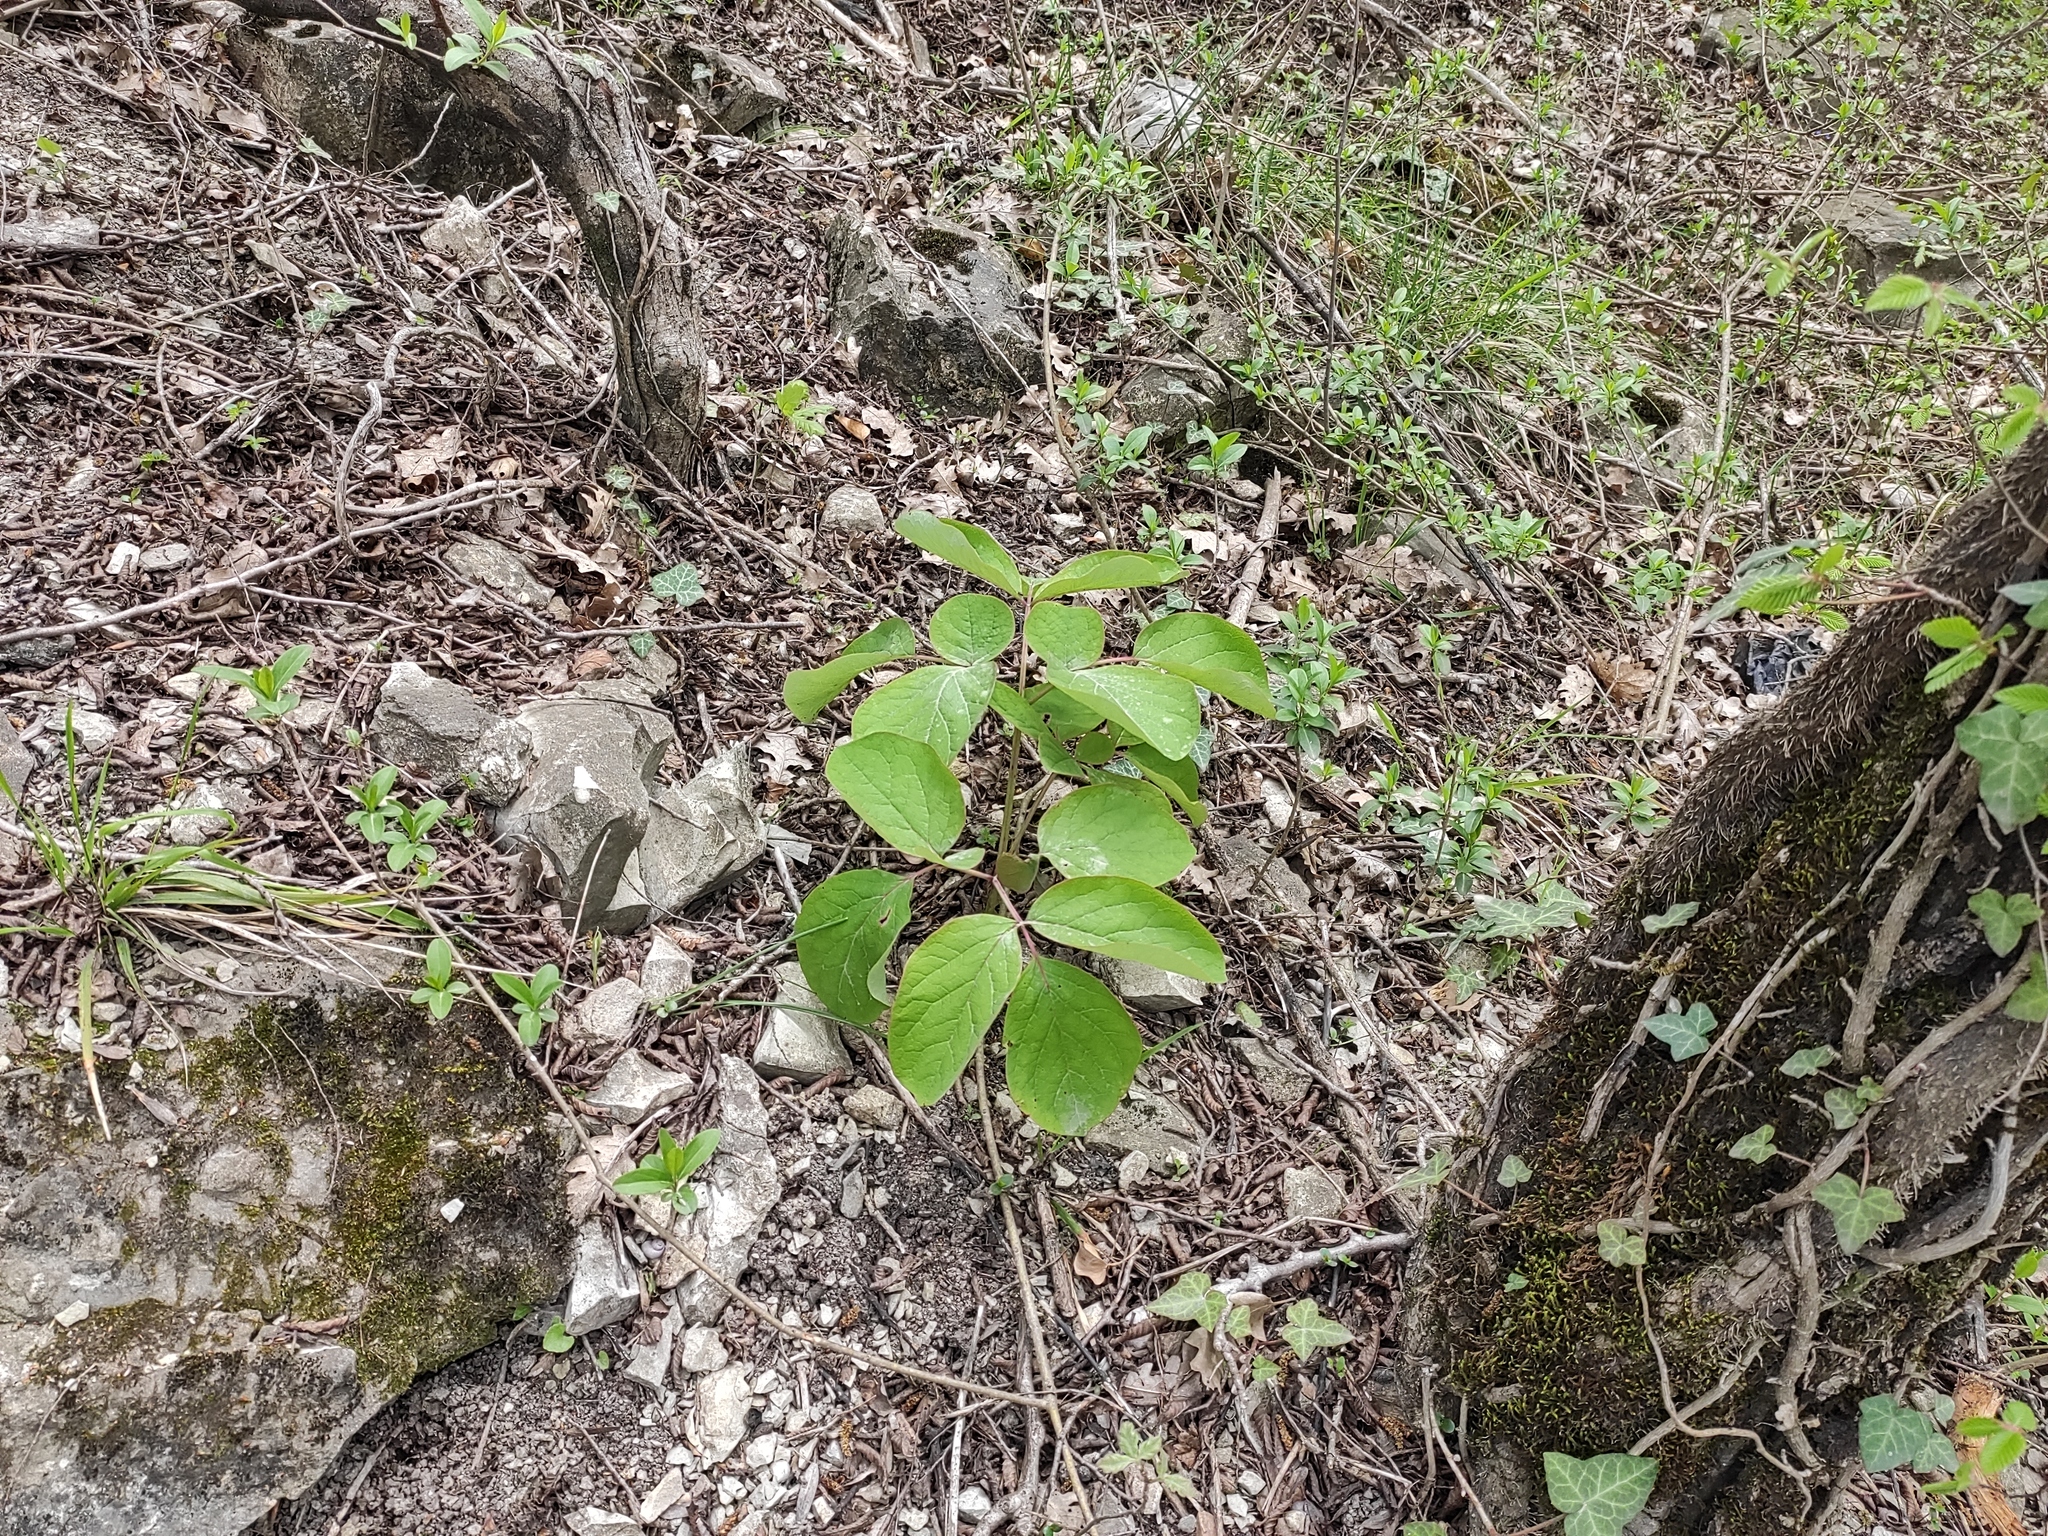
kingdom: Plantae
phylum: Tracheophyta
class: Magnoliopsida
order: Saxifragales
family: Paeoniaceae
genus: Paeonia
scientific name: Paeonia caucasica
